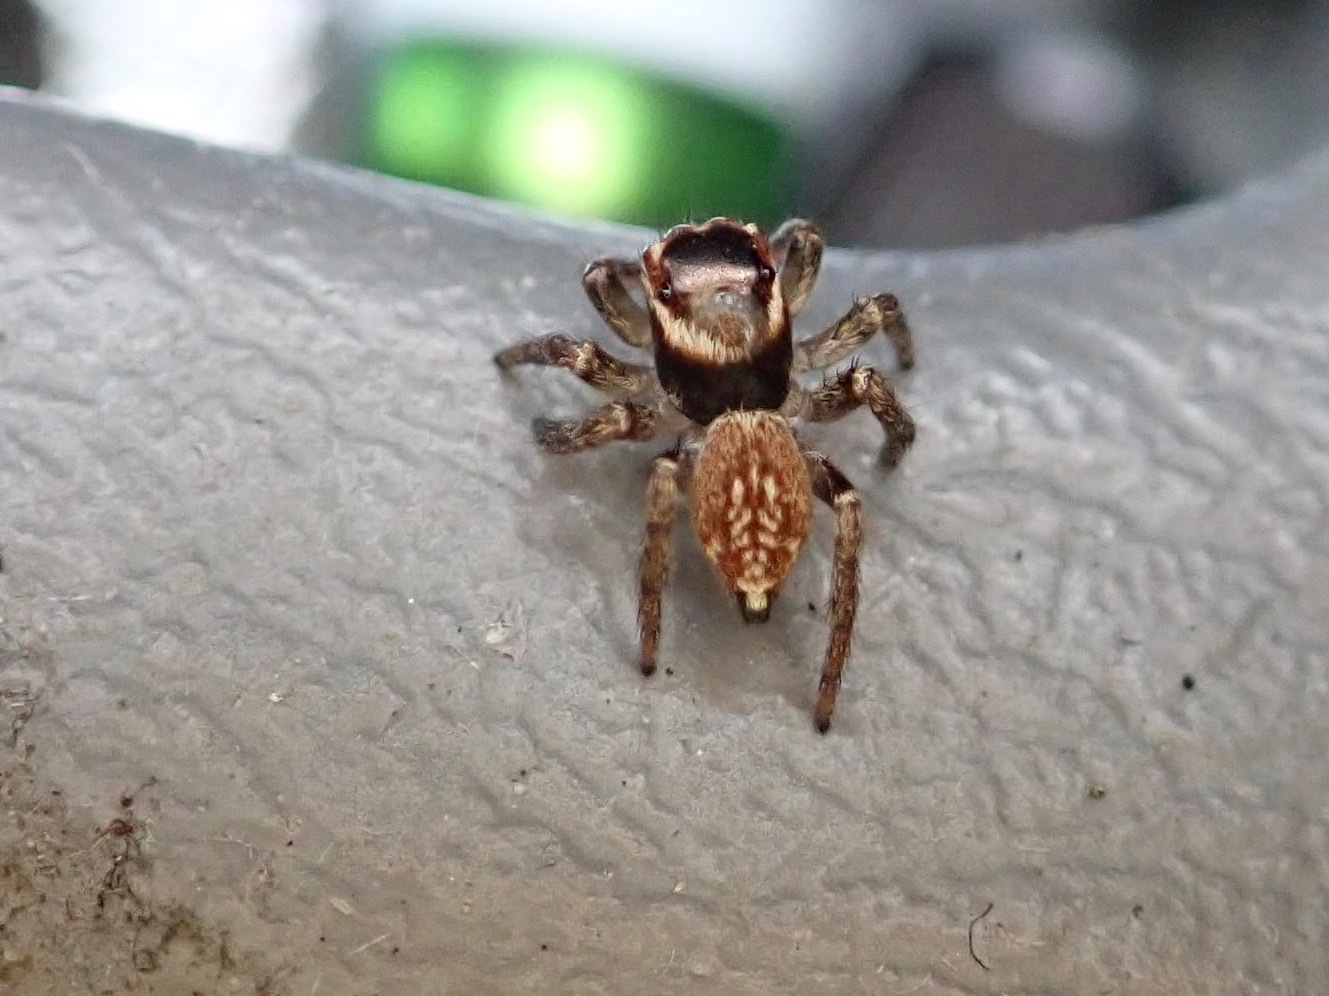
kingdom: Animalia
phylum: Arthropoda
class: Arachnida
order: Araneae
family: Salticidae
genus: Maratus
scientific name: Maratus griseus
